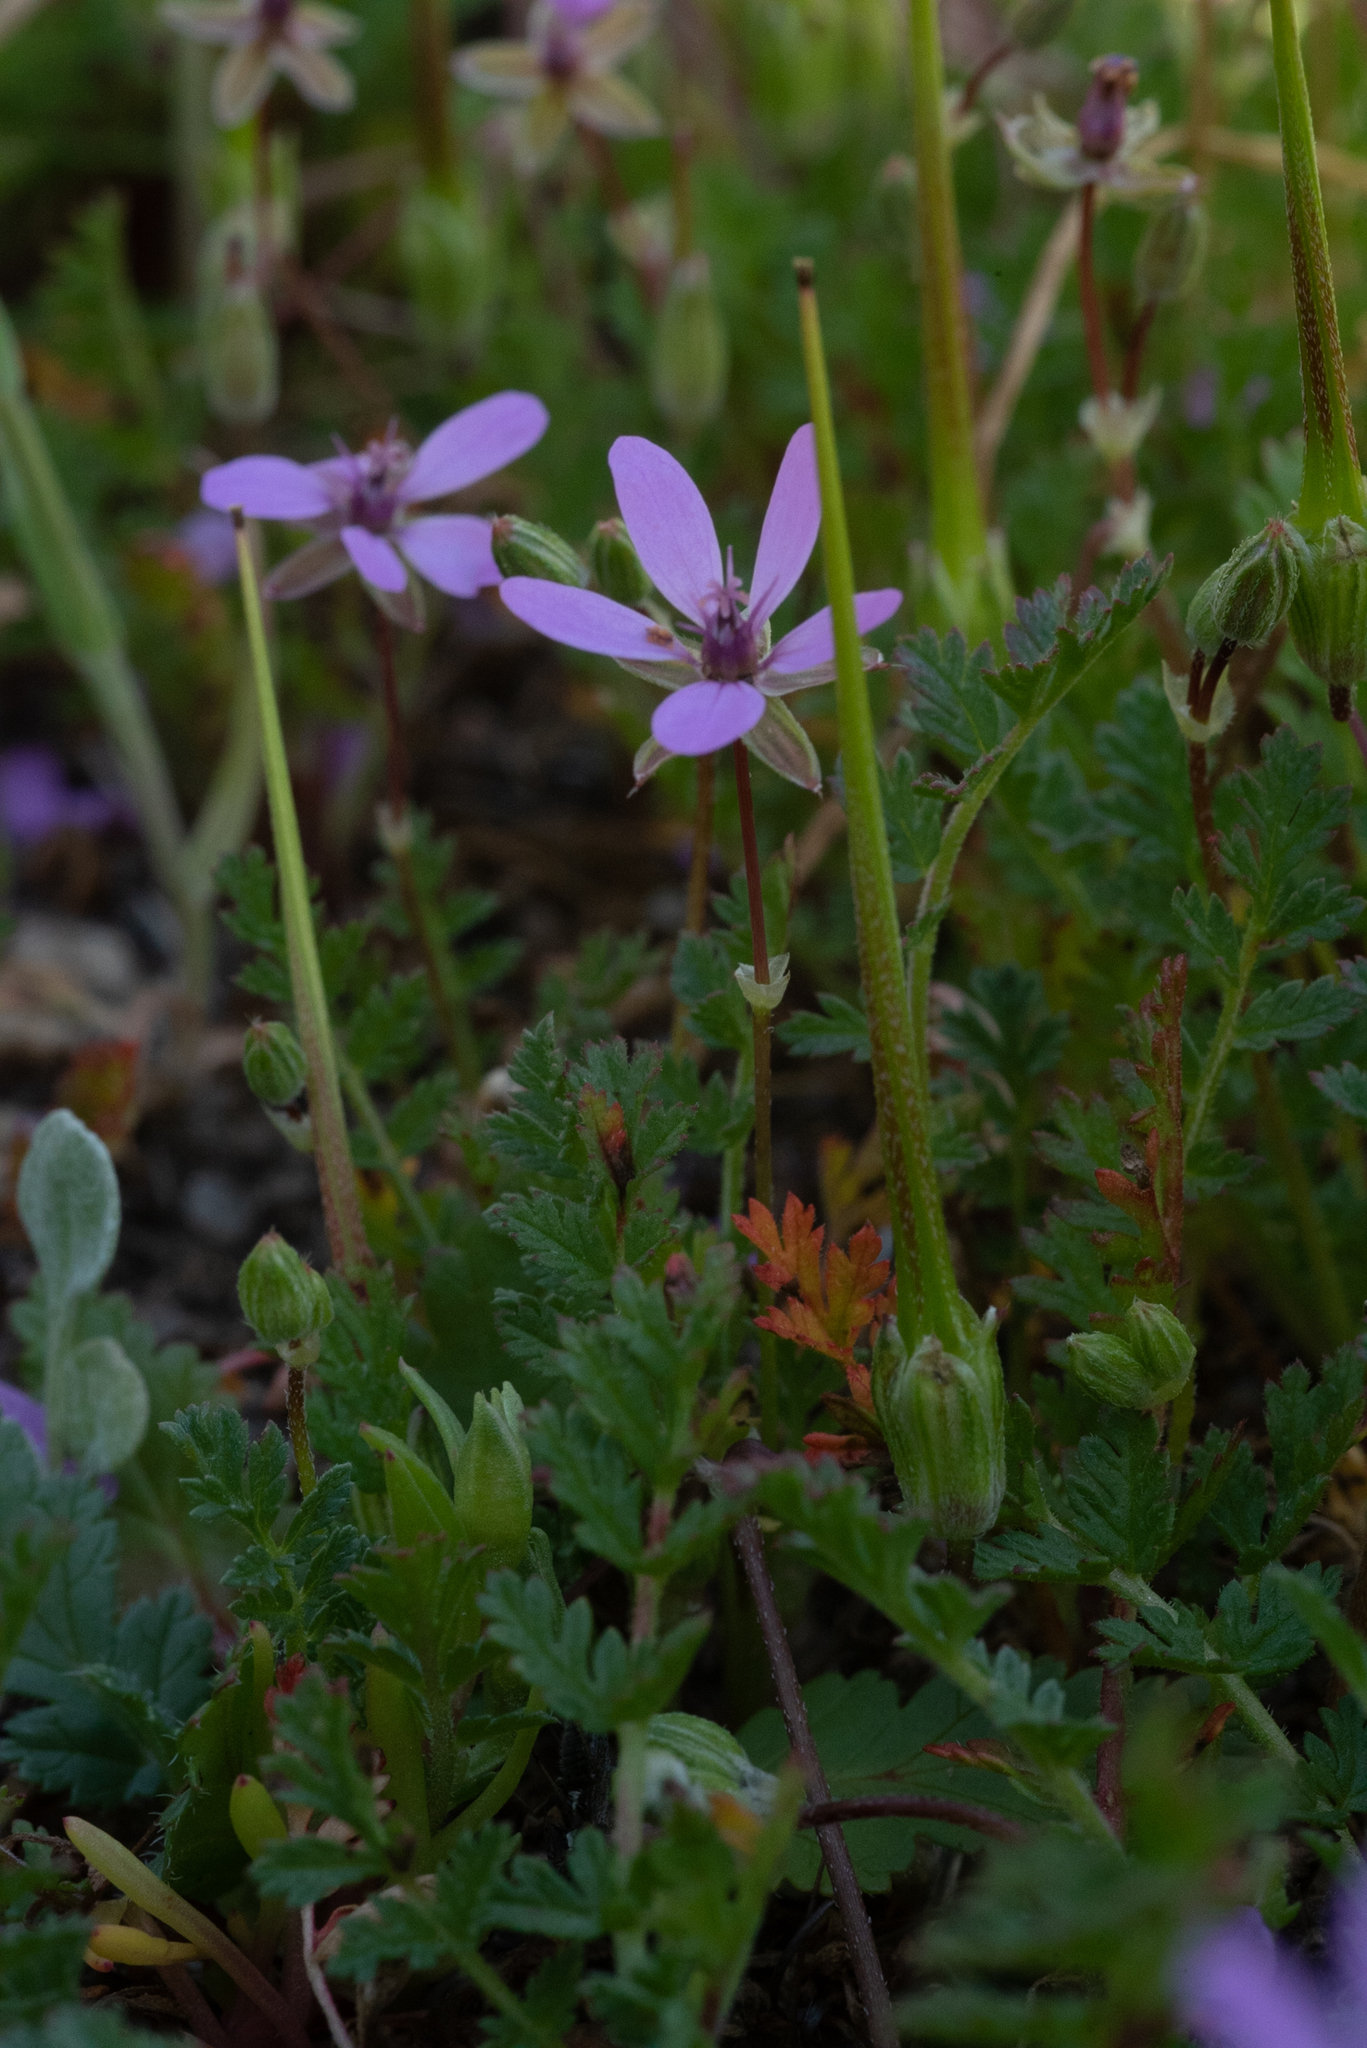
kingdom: Plantae
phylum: Tracheophyta
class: Magnoliopsida
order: Geraniales
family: Geraniaceae
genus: Erodium
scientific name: Erodium cicutarium
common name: Common stork's-bill
